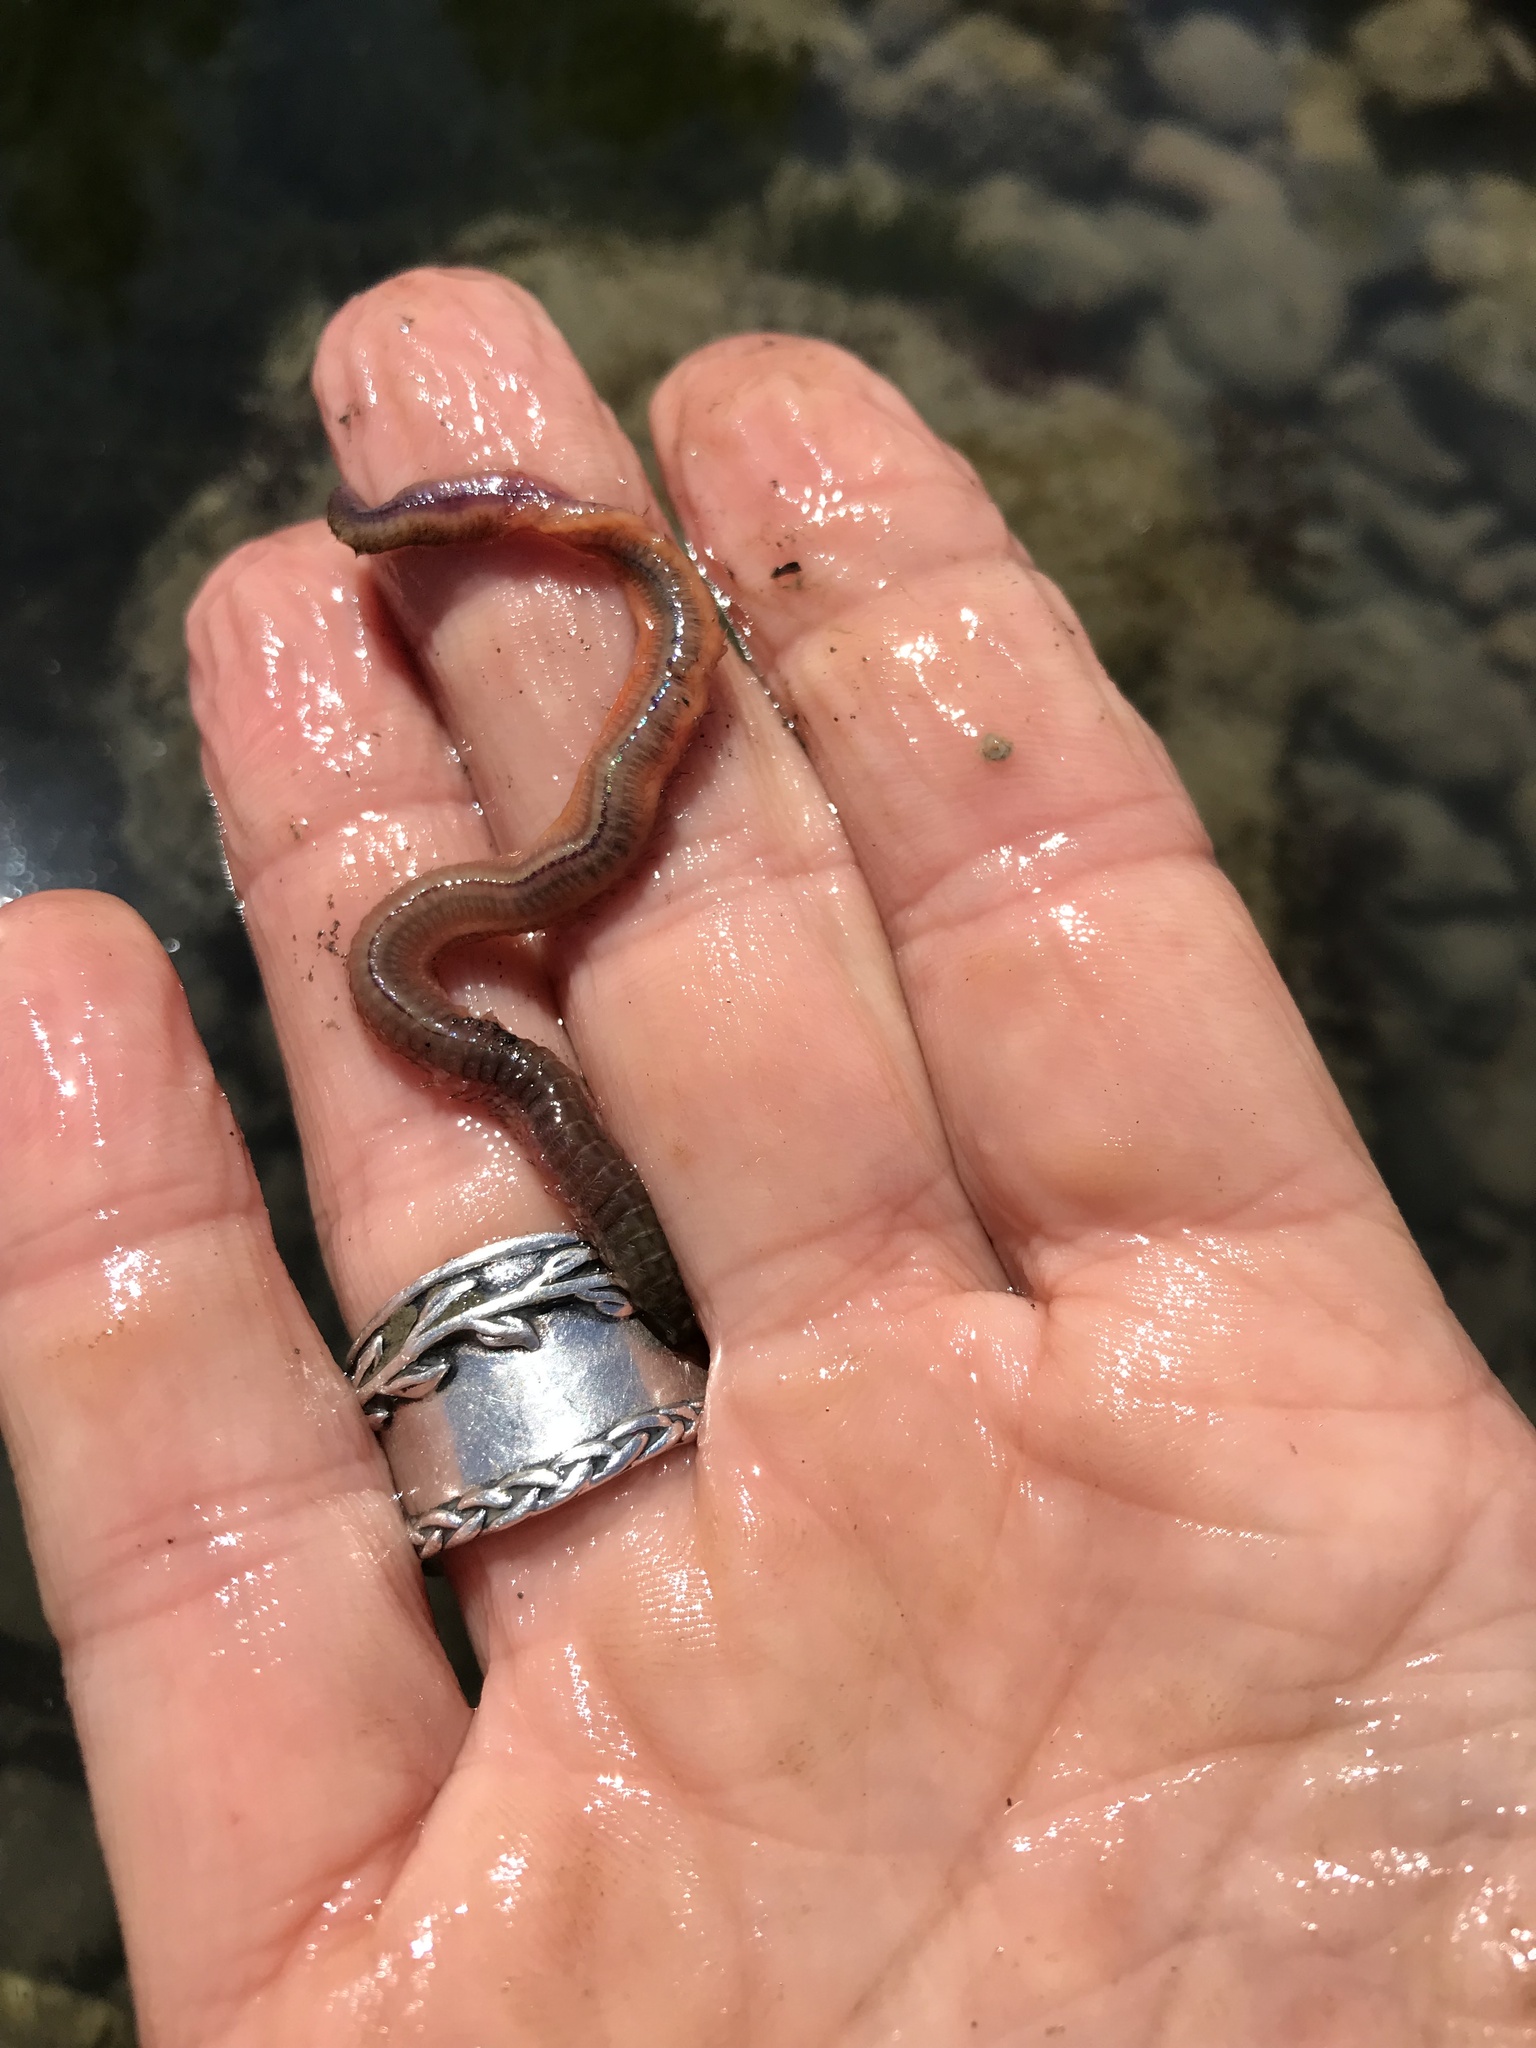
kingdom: Animalia
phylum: Annelida
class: Polychaeta
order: Phyllodocida
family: Nereididae
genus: Alitta
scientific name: Alitta succinea
